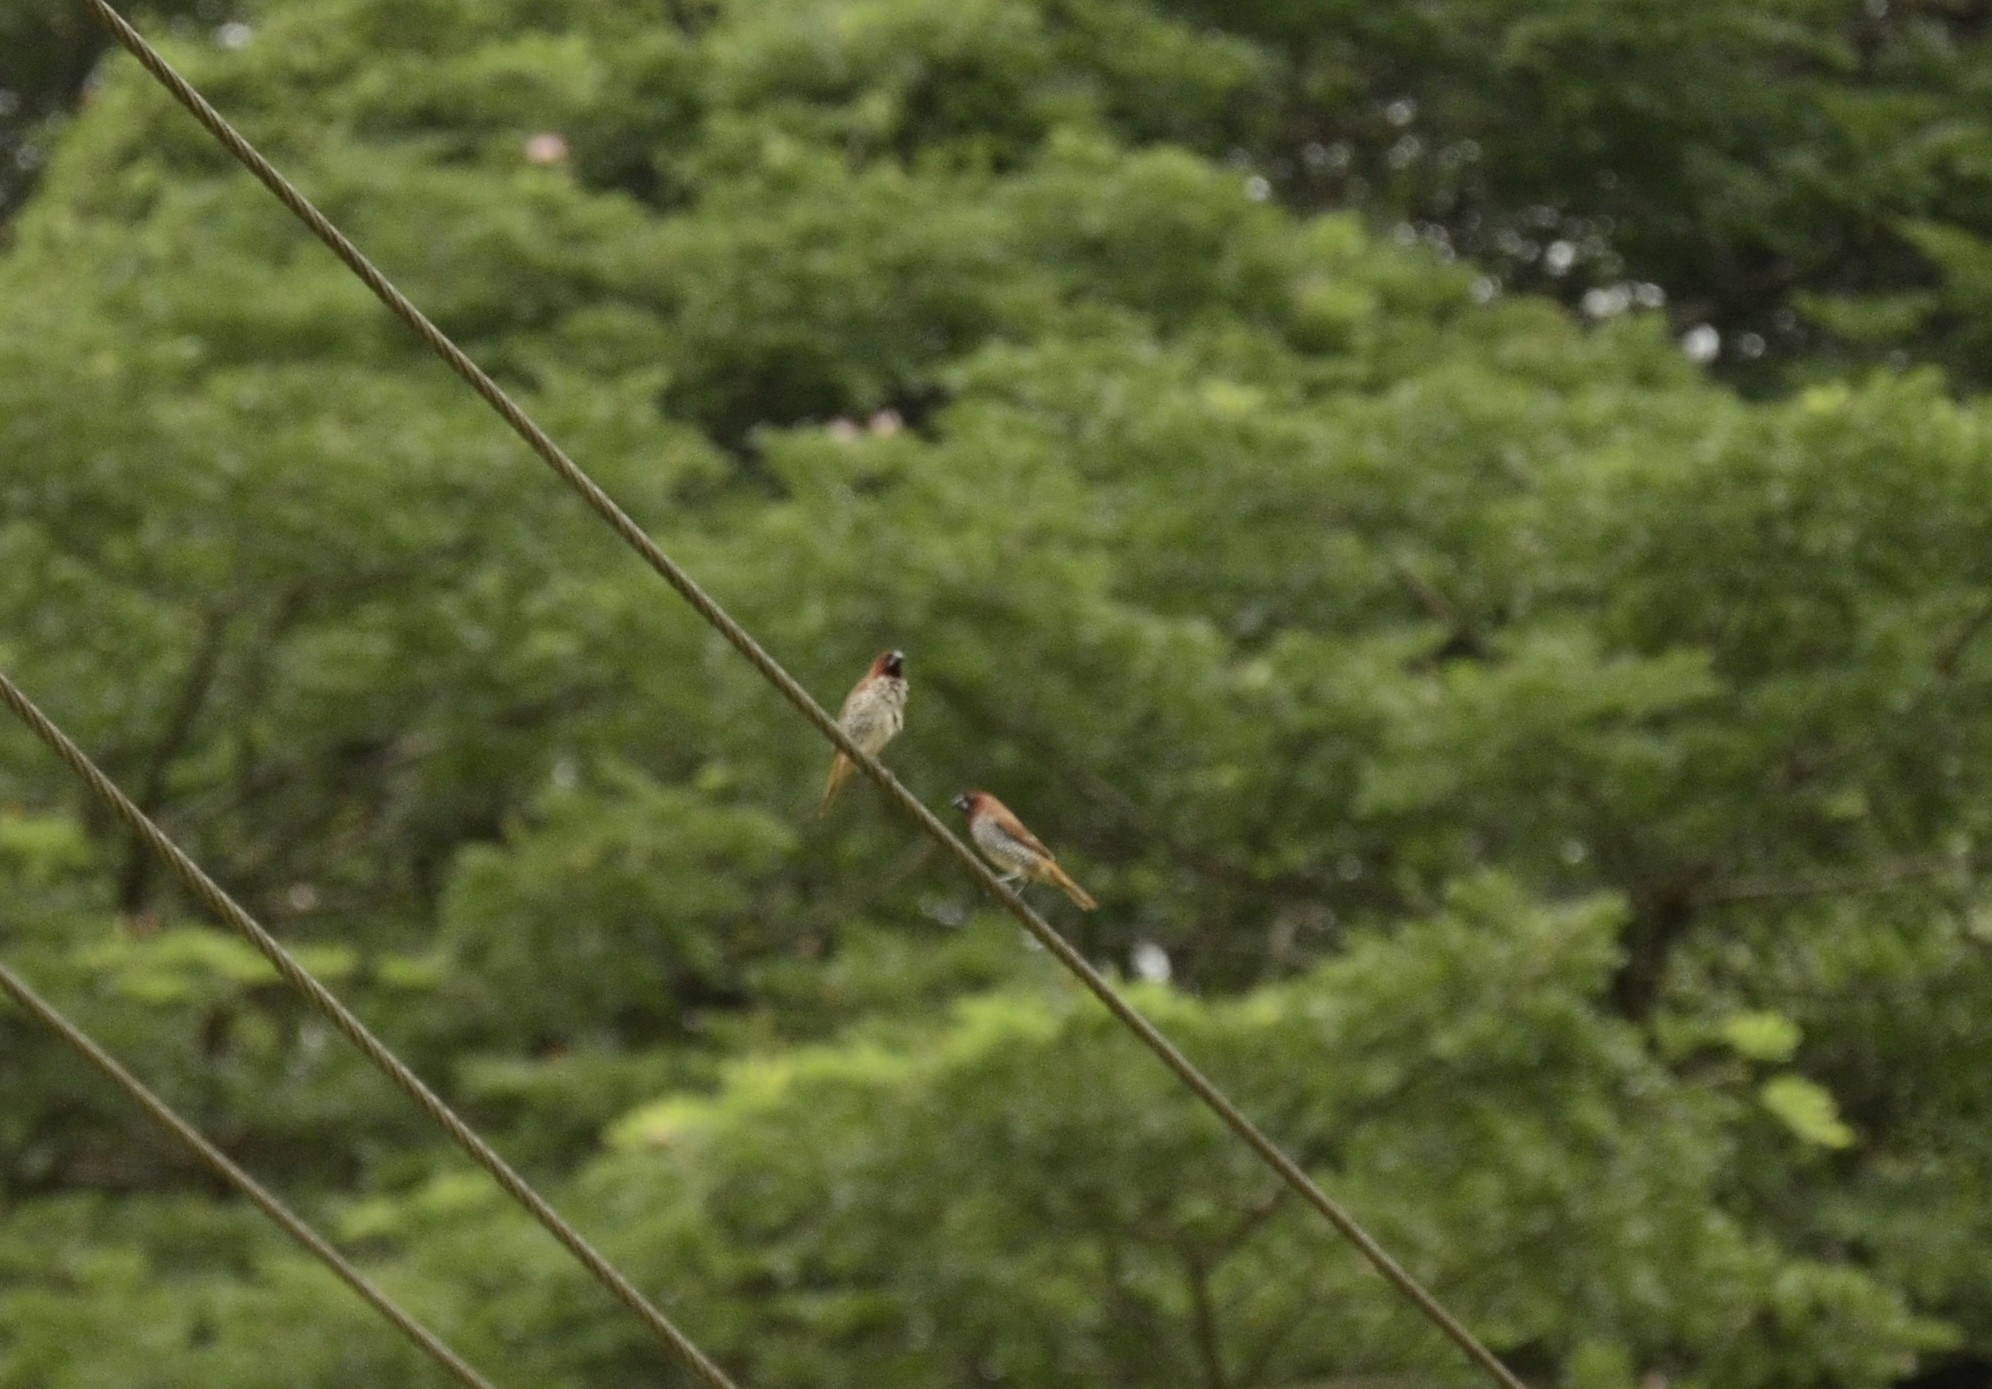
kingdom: Animalia
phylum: Chordata
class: Aves
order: Passeriformes
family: Estrildidae
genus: Lonchura
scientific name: Lonchura punctulata
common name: Scaly-breasted munia
